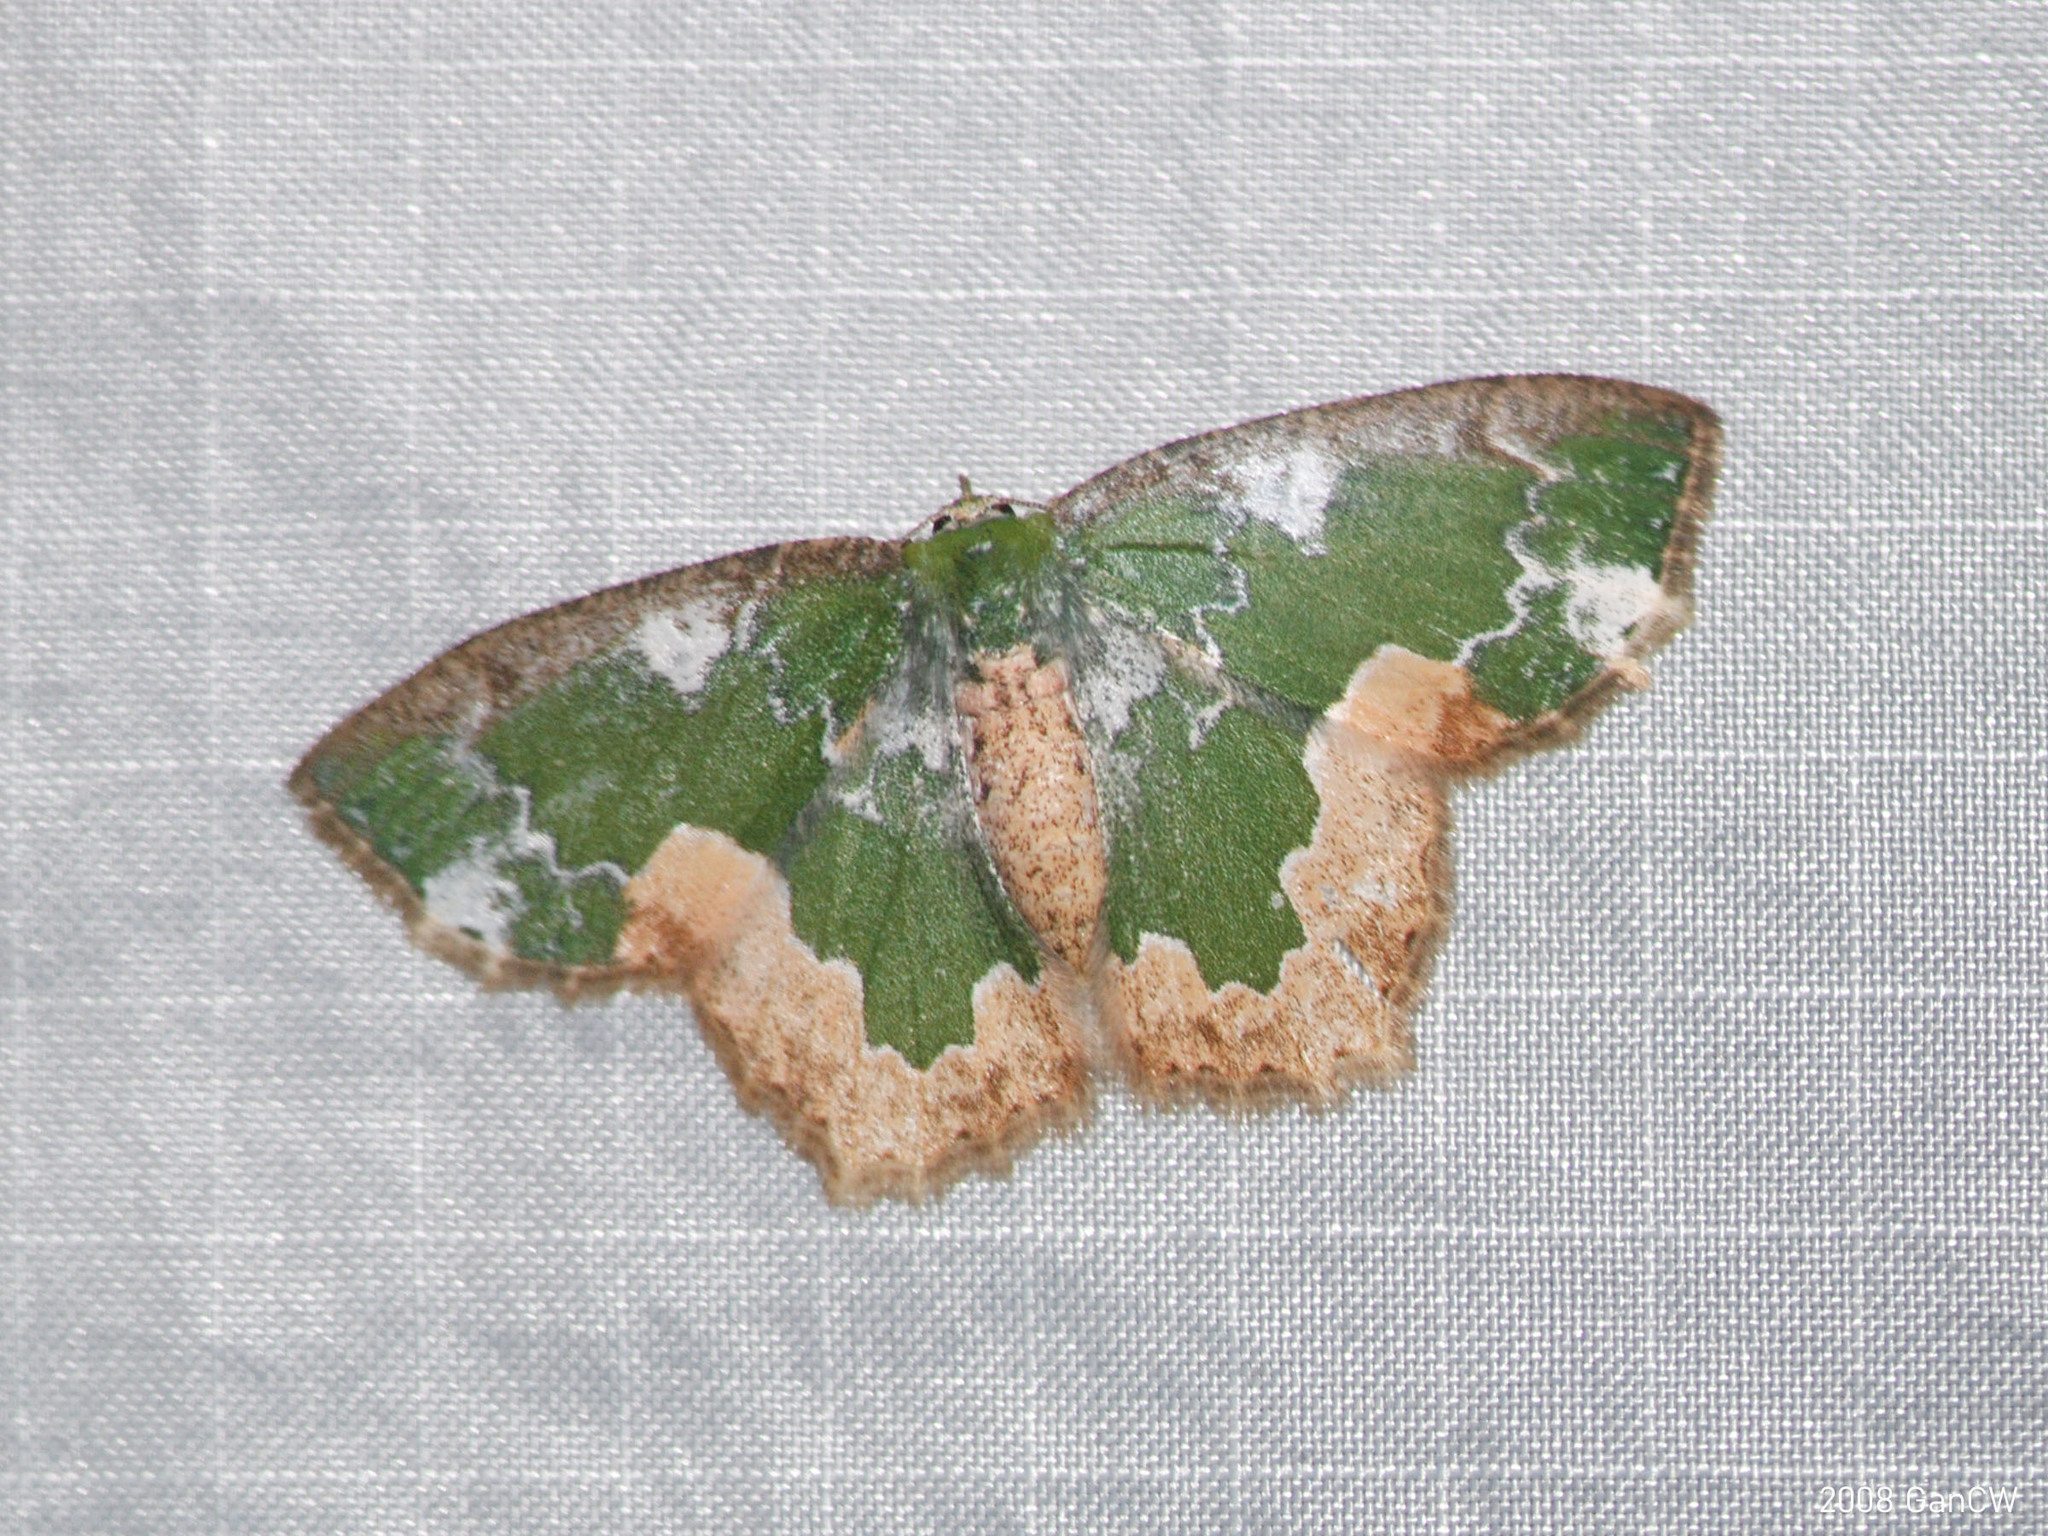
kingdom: Animalia
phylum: Arthropoda
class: Insecta
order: Lepidoptera
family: Geometridae
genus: Eucyclodes
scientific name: Eucyclodes albisparsa
